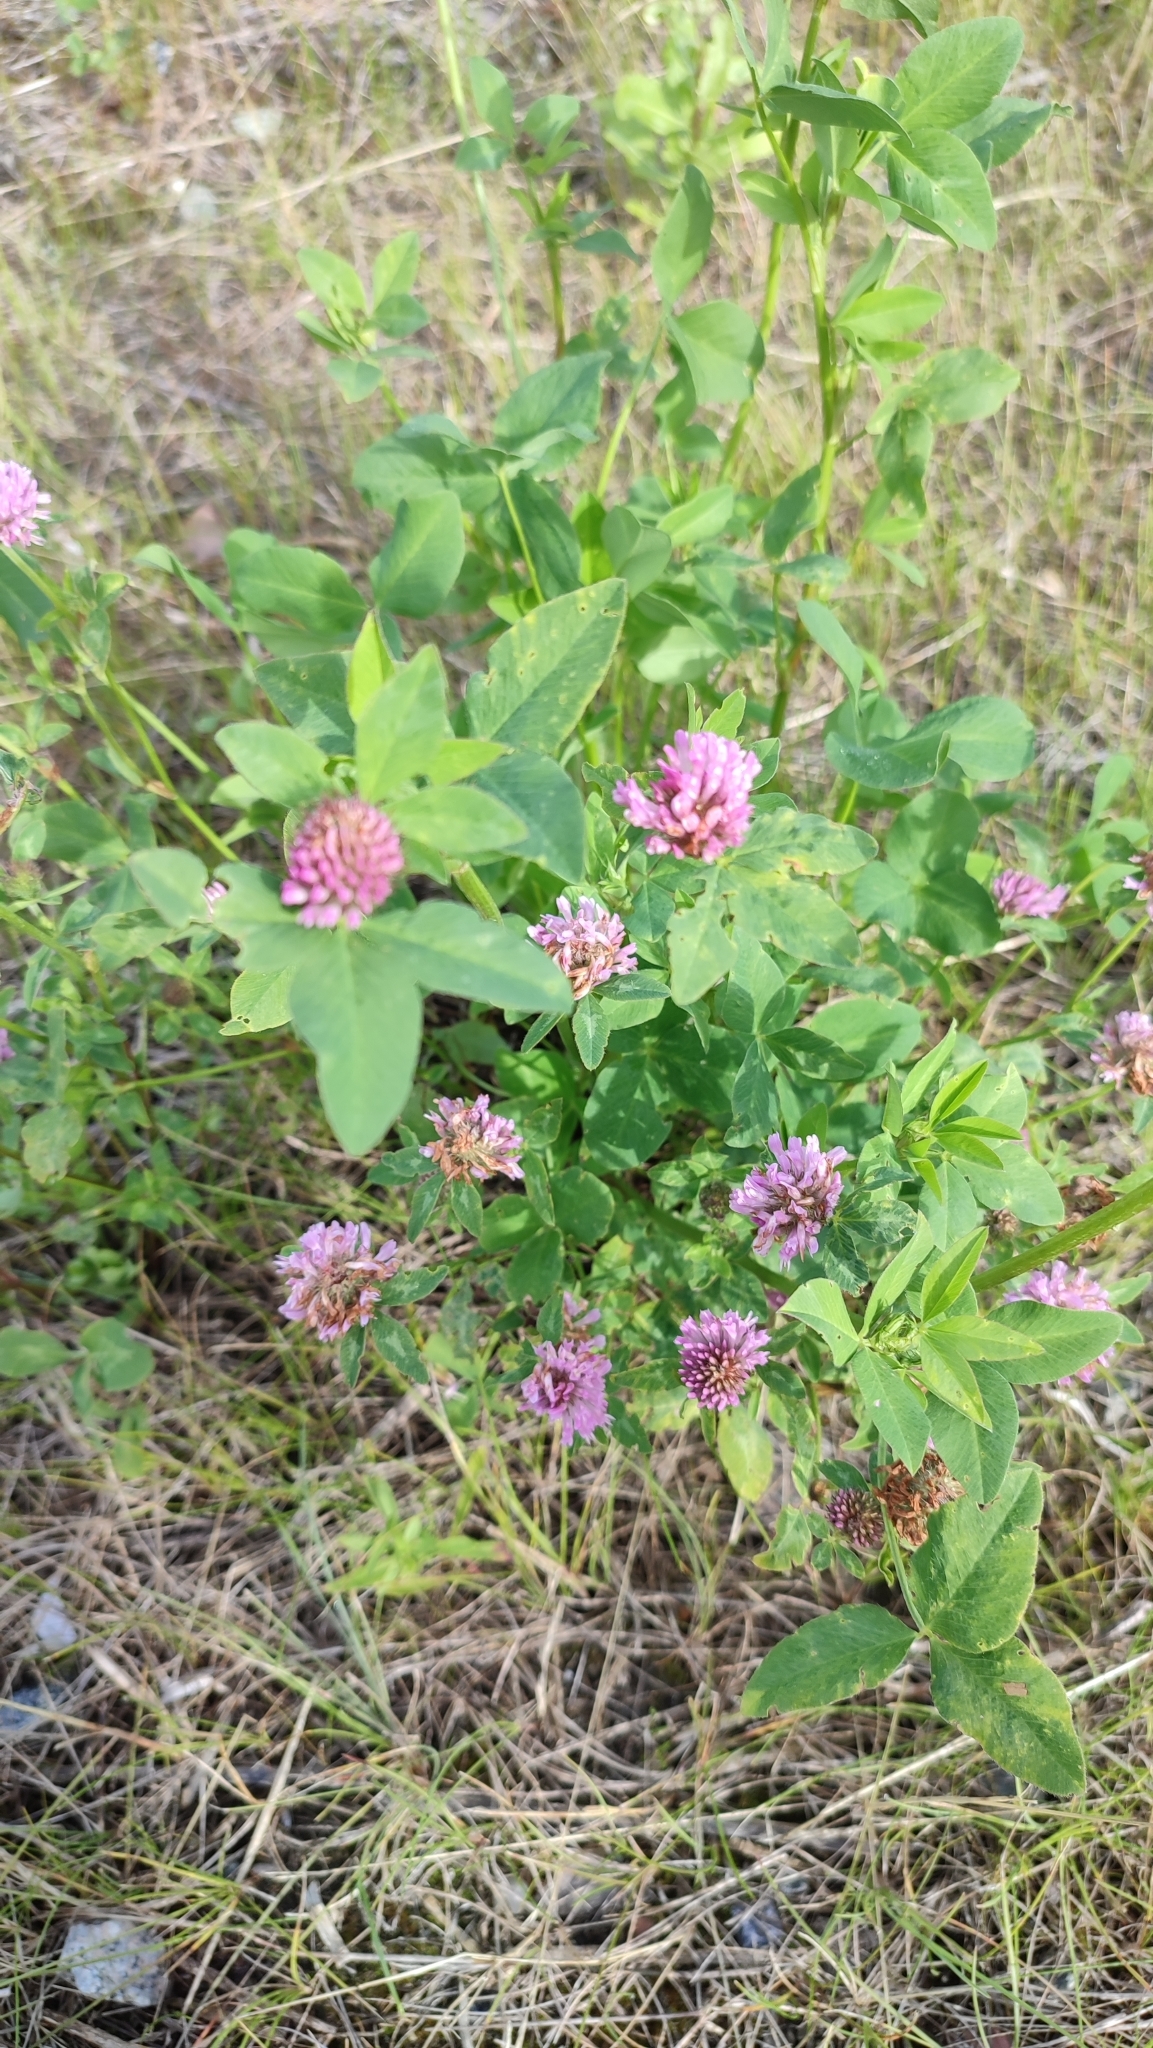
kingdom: Plantae
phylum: Tracheophyta
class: Magnoliopsida
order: Fabales
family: Fabaceae
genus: Trifolium
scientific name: Trifolium pratense
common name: Red clover
